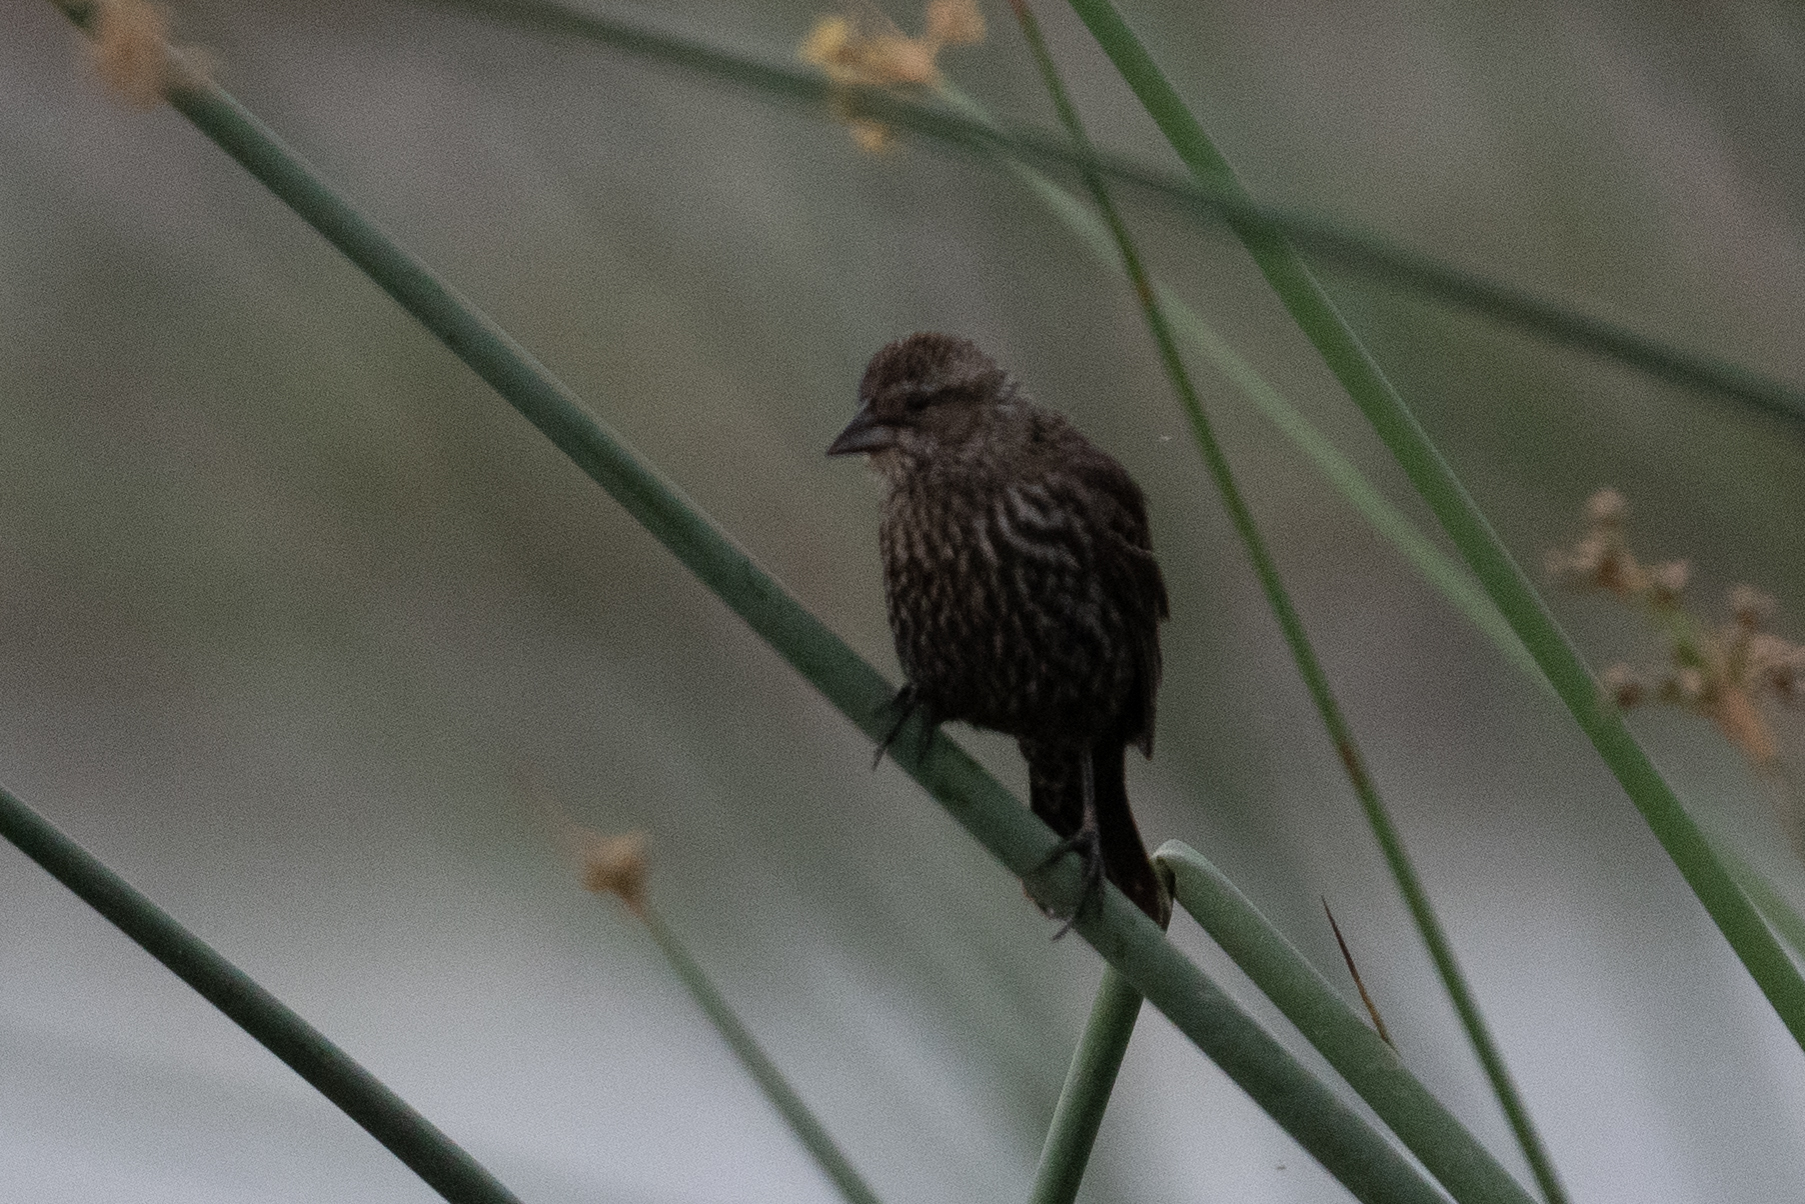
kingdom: Animalia
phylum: Chordata
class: Aves
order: Passeriformes
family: Icteridae
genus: Agelaius
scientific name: Agelaius phoeniceus
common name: Red-winged blackbird
